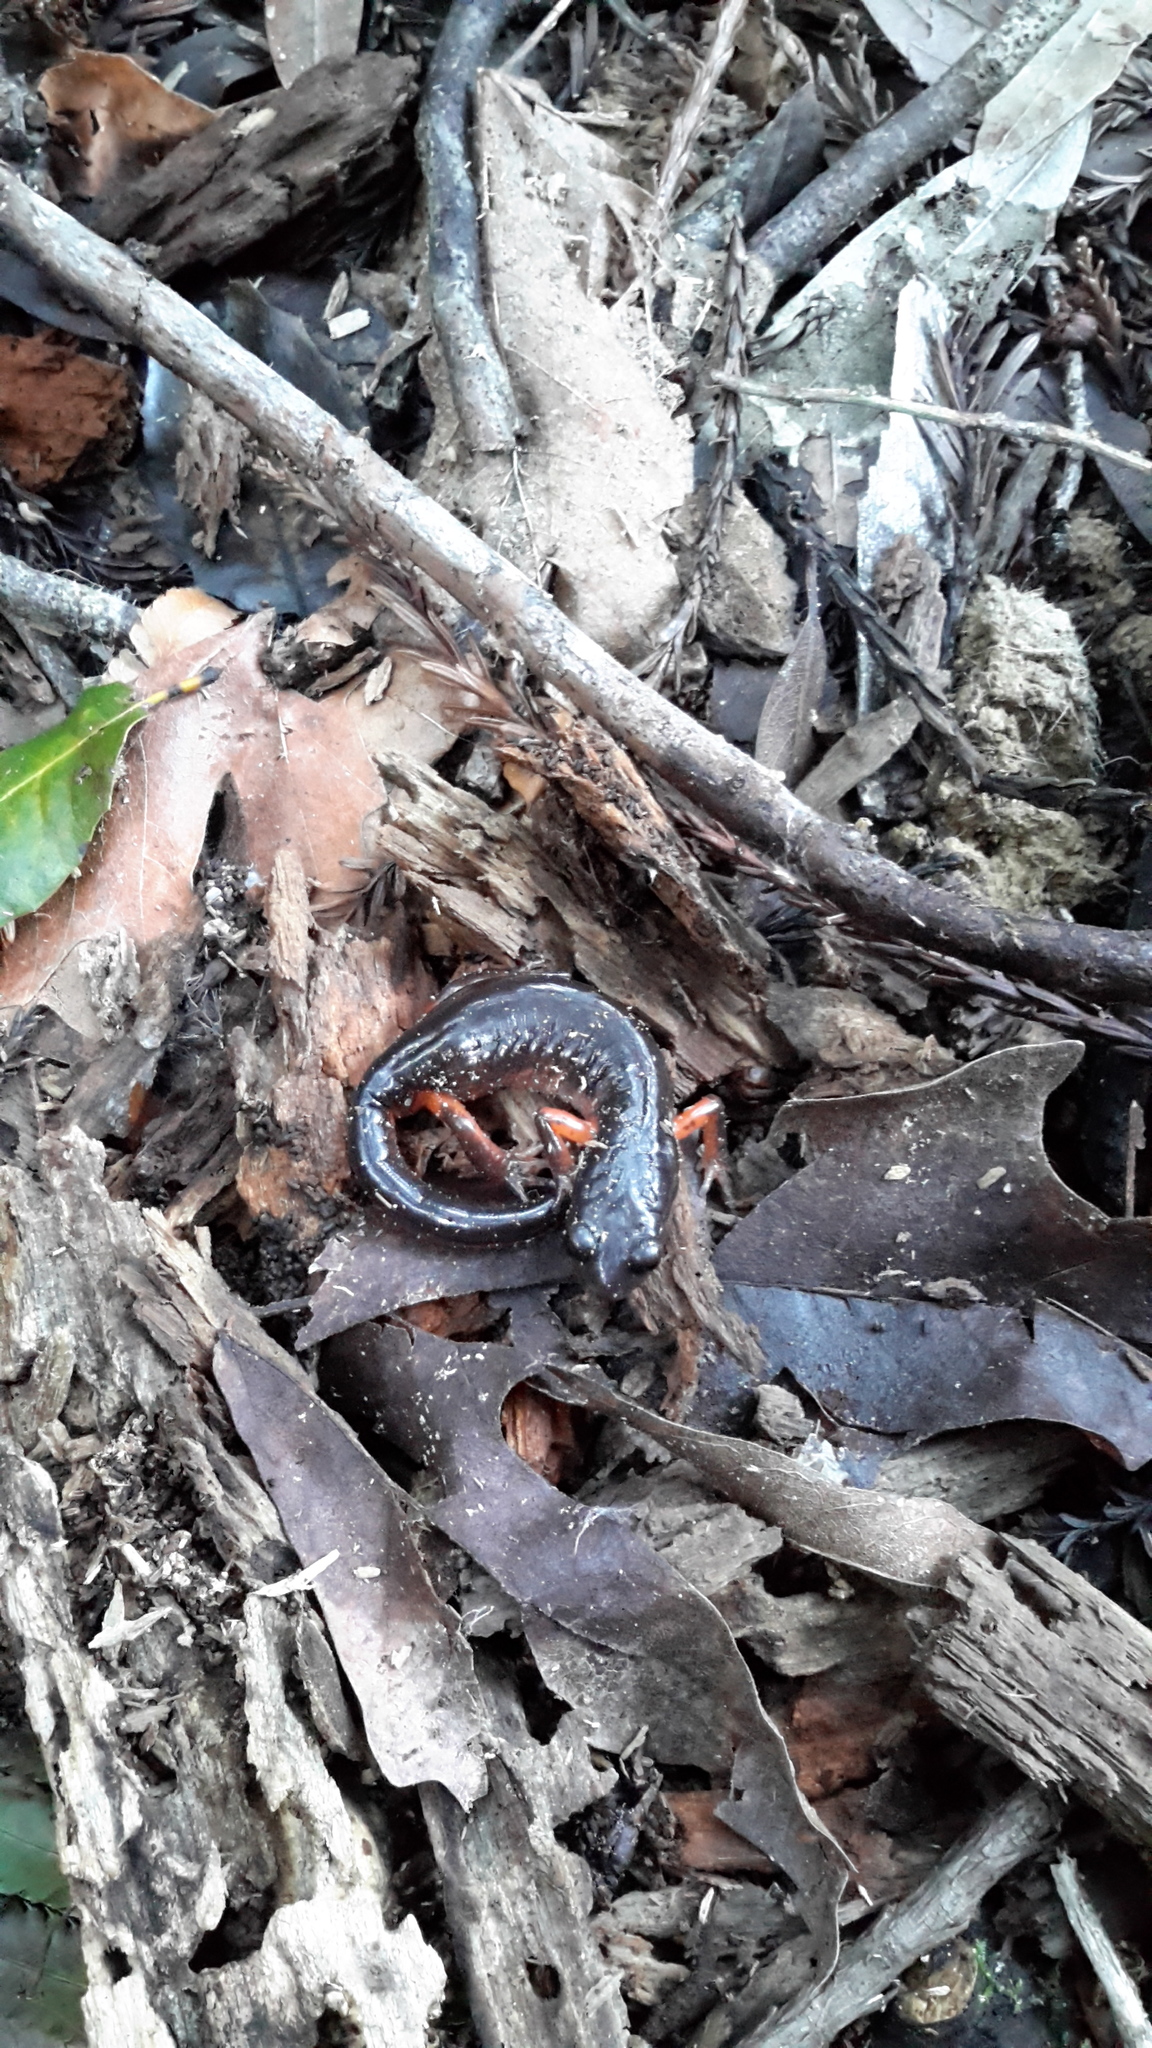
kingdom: Animalia
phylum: Chordata
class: Amphibia
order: Caudata
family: Plethodontidae
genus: Ensatina
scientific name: Ensatina eschscholtzii
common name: Ensatina
